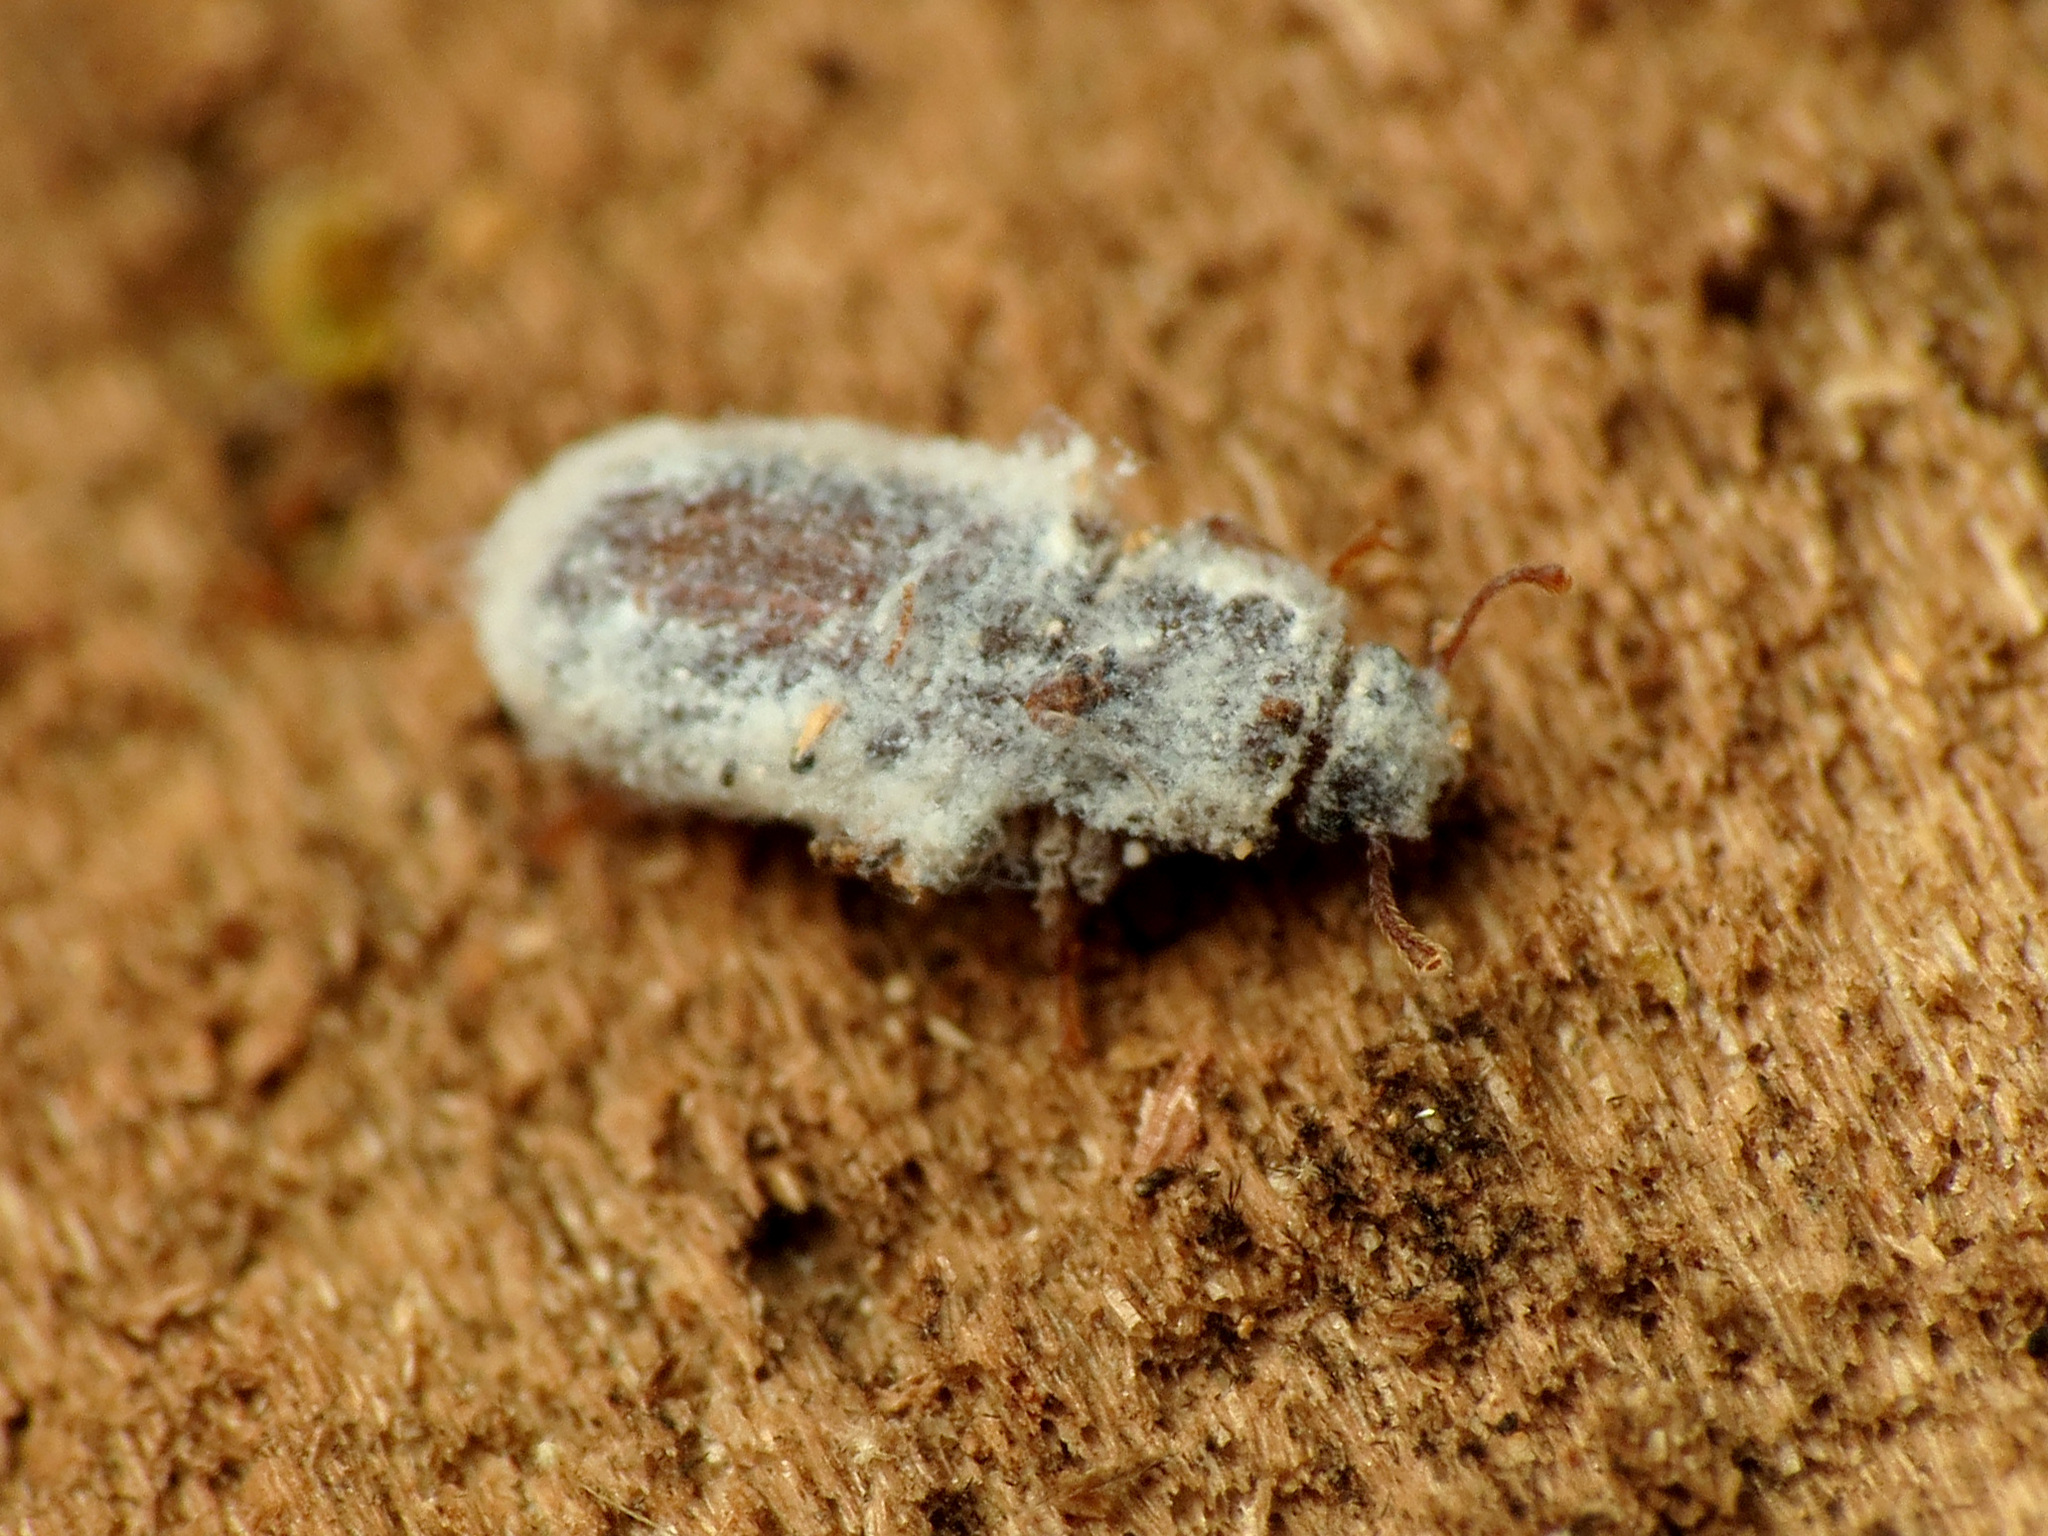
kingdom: Animalia
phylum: Arthropoda
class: Insecta
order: Coleoptera
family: Zopheridae
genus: Endeitoma
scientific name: Endeitoma granulata
